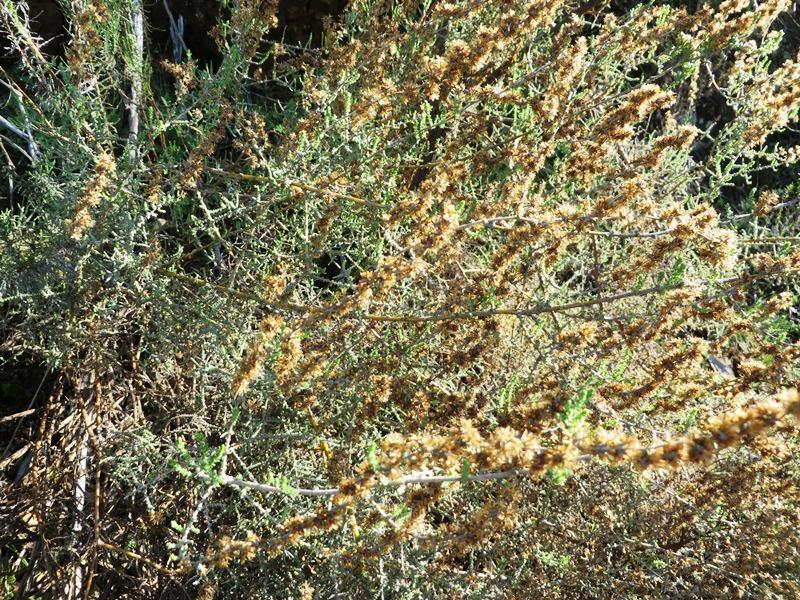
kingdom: Plantae
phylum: Tracheophyta
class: Magnoliopsida
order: Asterales
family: Asteraceae
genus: Seriphium
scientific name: Seriphium plumosum
